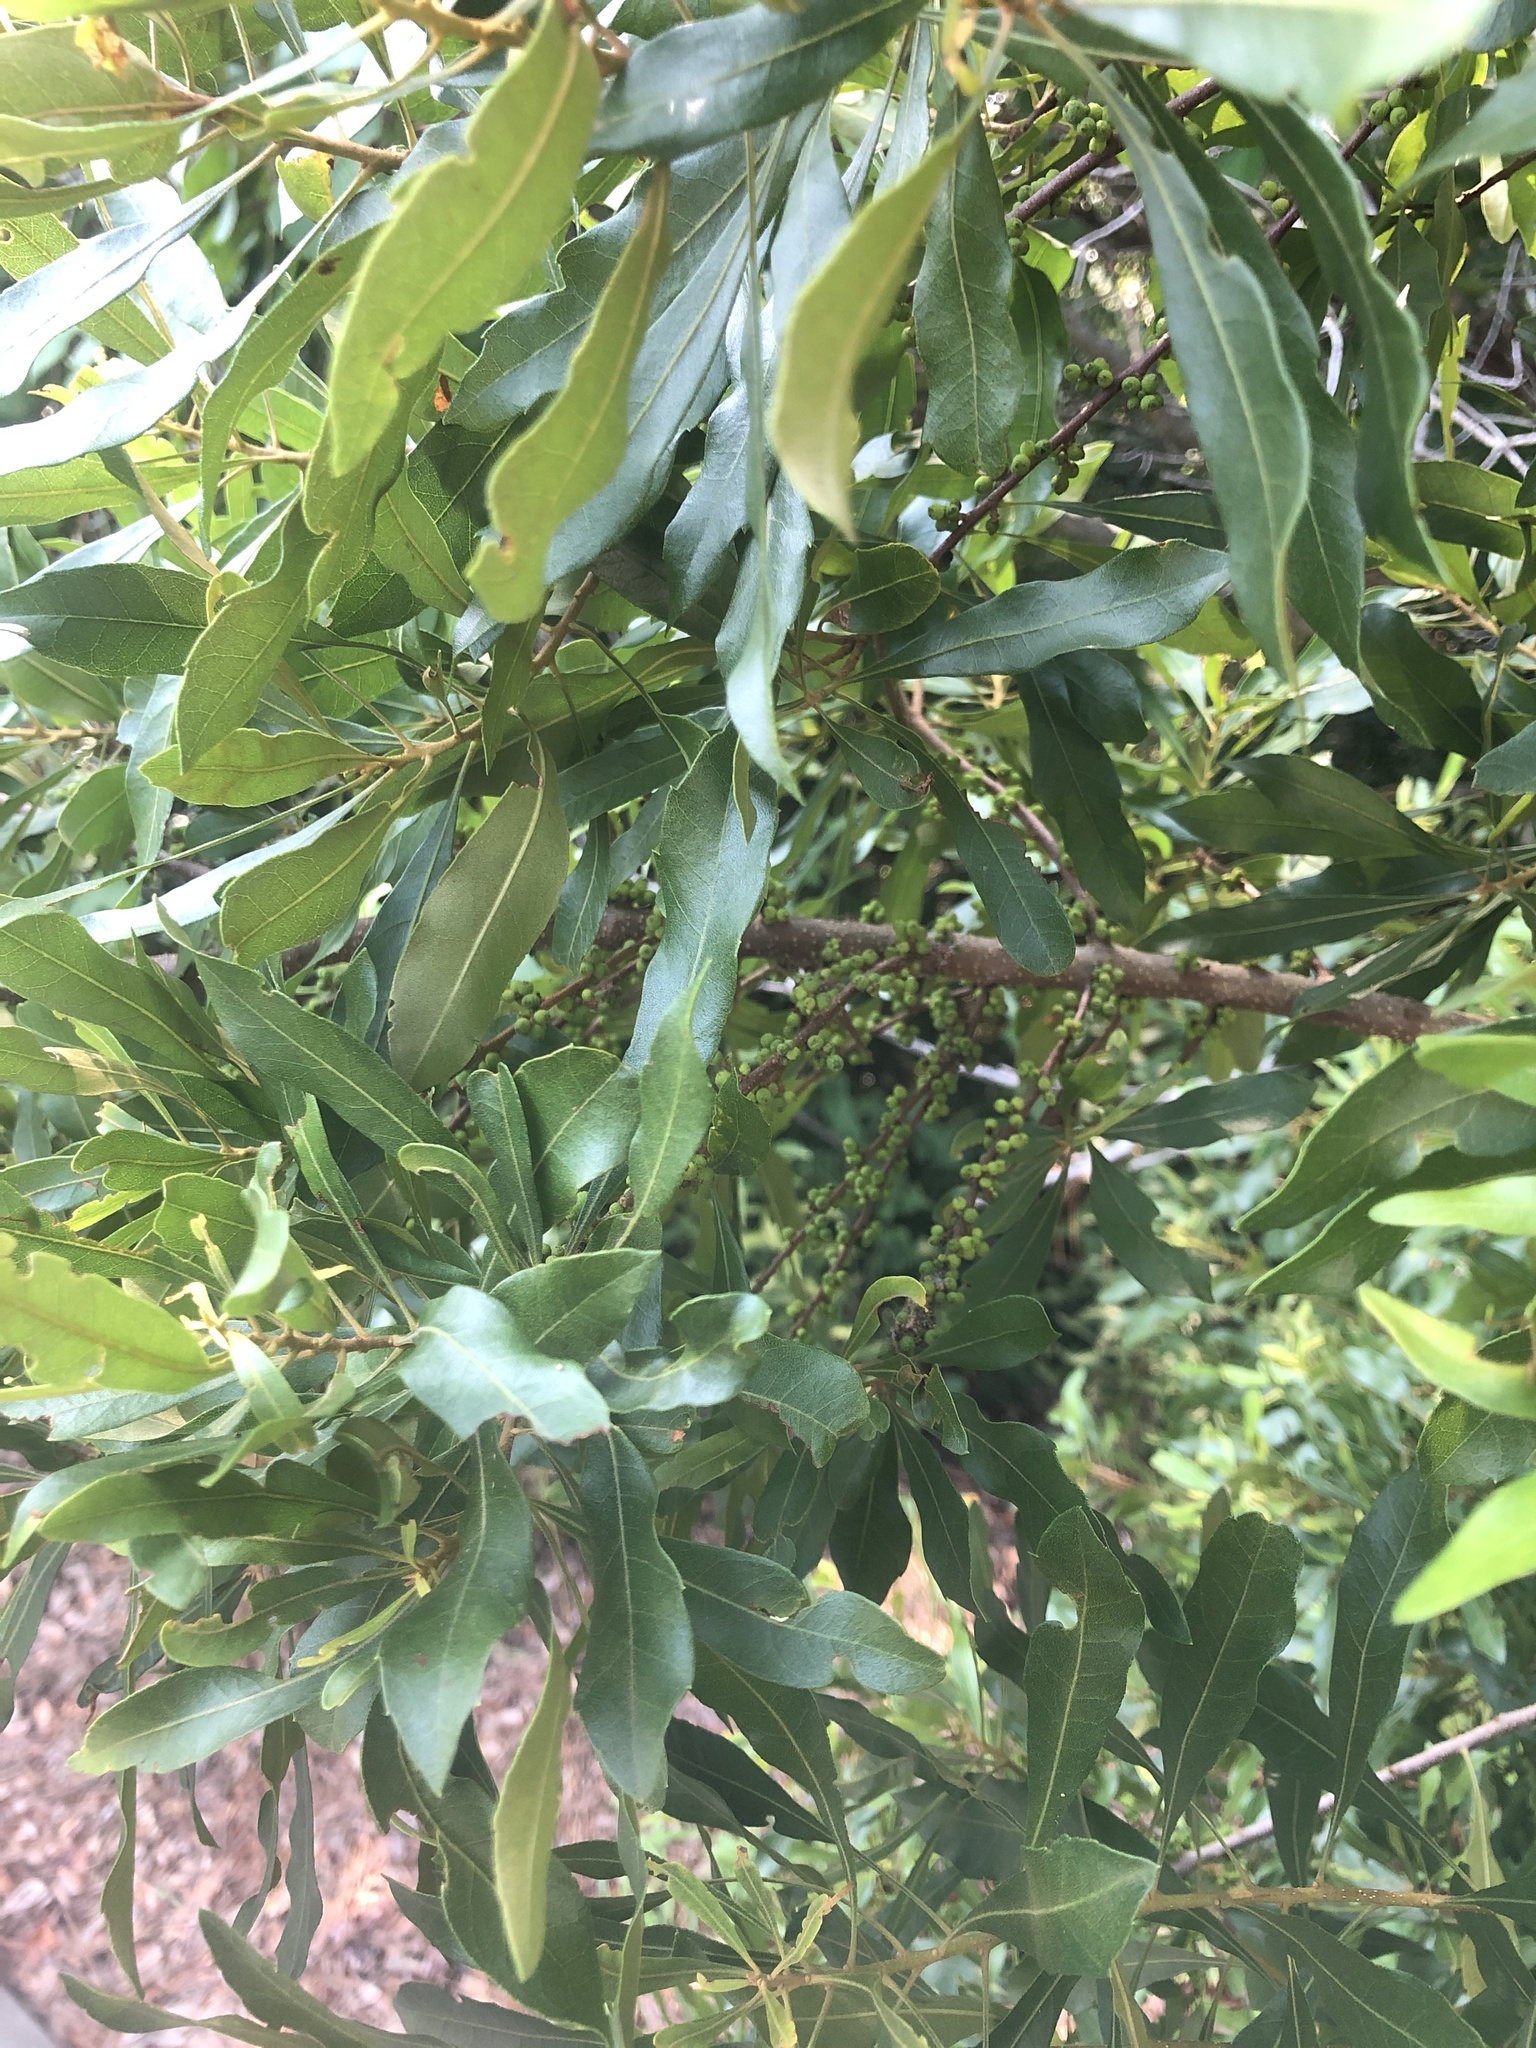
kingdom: Plantae
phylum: Tracheophyta
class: Magnoliopsida
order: Fagales
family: Myricaceae
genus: Morella
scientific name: Morella cerifera
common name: Wax myrtle
